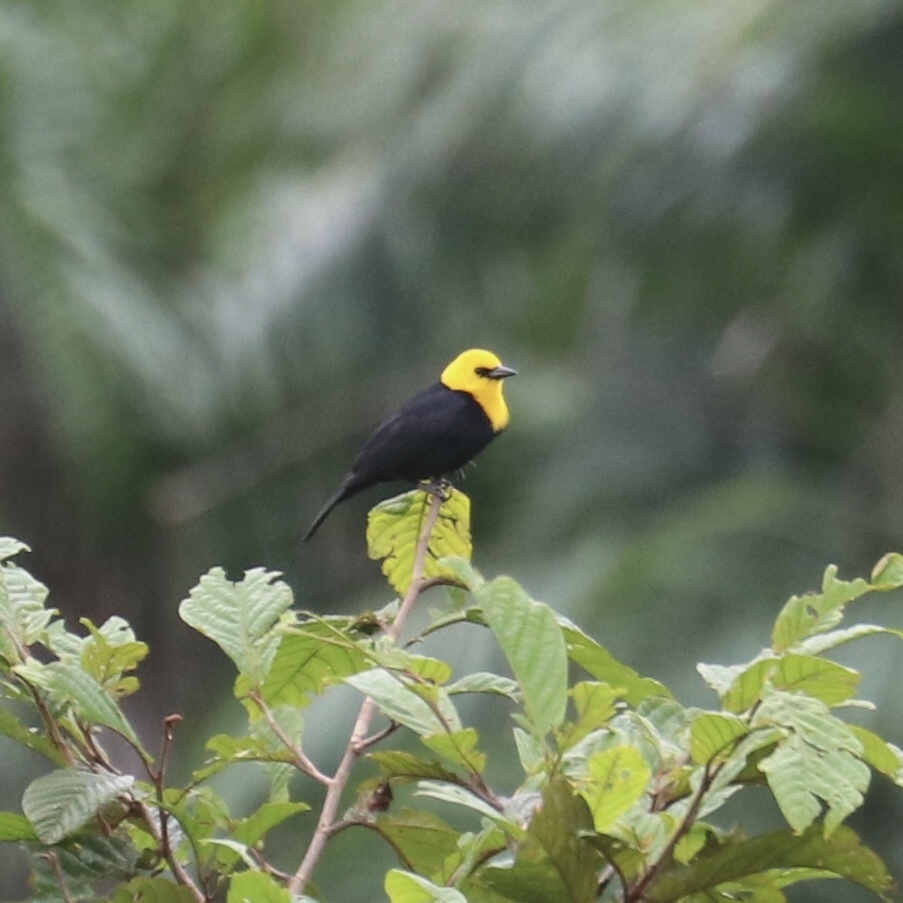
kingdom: Animalia
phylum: Chordata
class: Aves
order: Passeriformes
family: Icteridae
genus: Chrysomus
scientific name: Chrysomus icterocephalus
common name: Yellow-hooded blackbird
